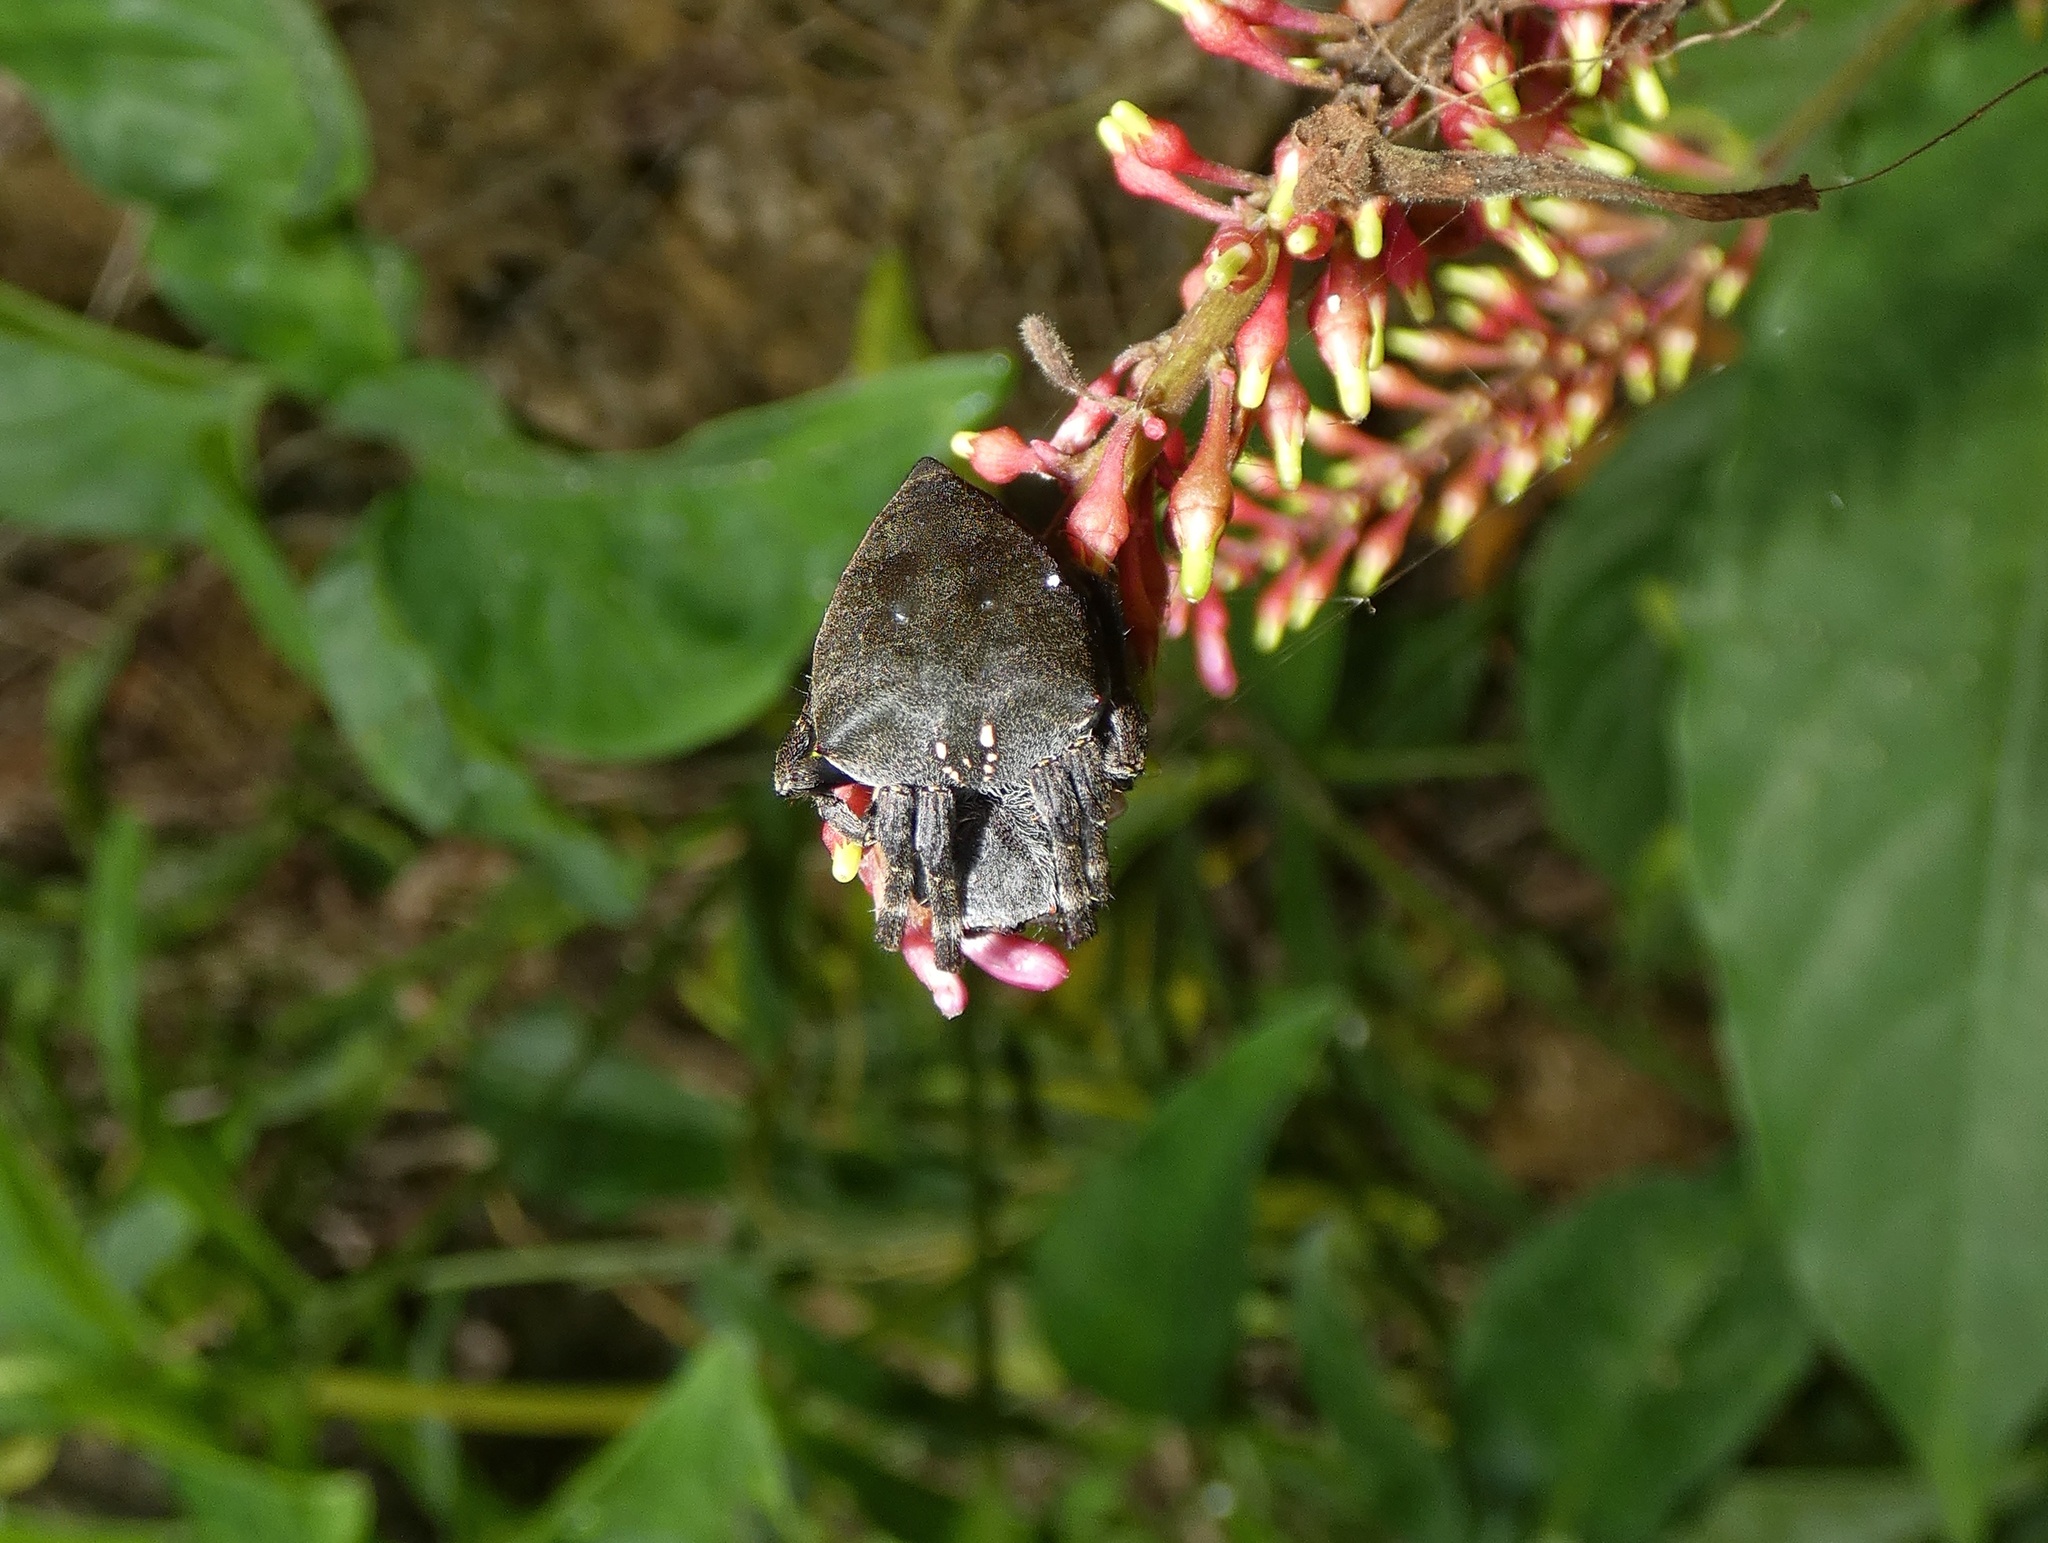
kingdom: Animalia
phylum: Arthropoda
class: Arachnida
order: Araneae
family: Araneidae
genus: Parawixia
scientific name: Parawixia dehaani
